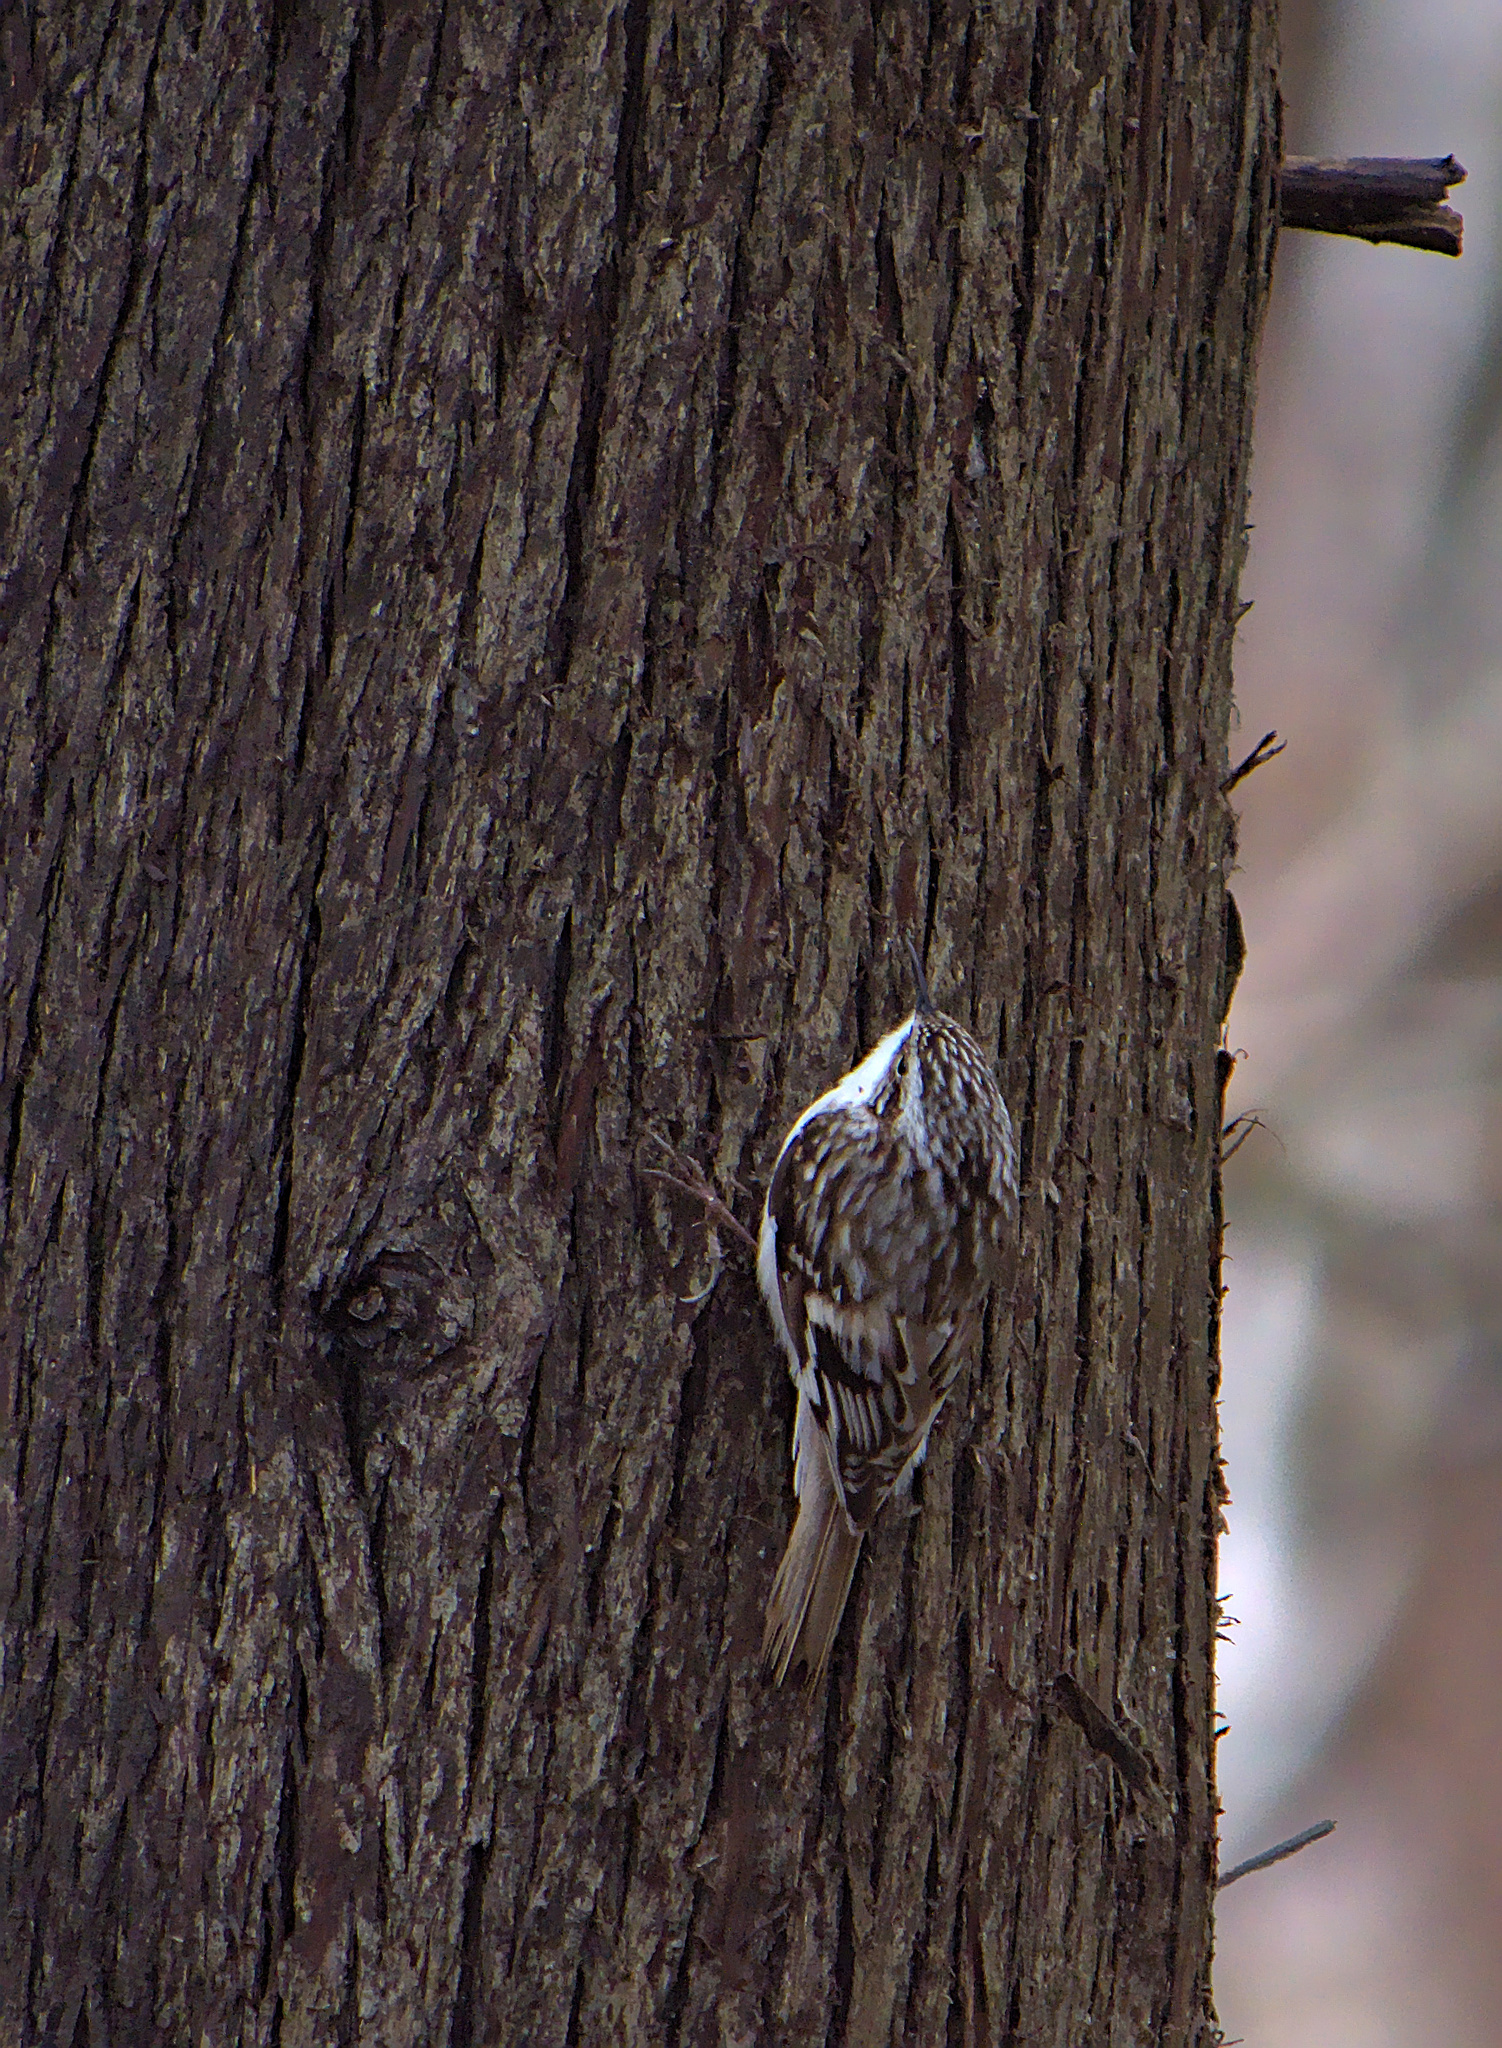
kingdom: Animalia
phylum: Chordata
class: Aves
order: Passeriformes
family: Certhiidae
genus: Certhia
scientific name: Certhia americana
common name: Brown creeper
